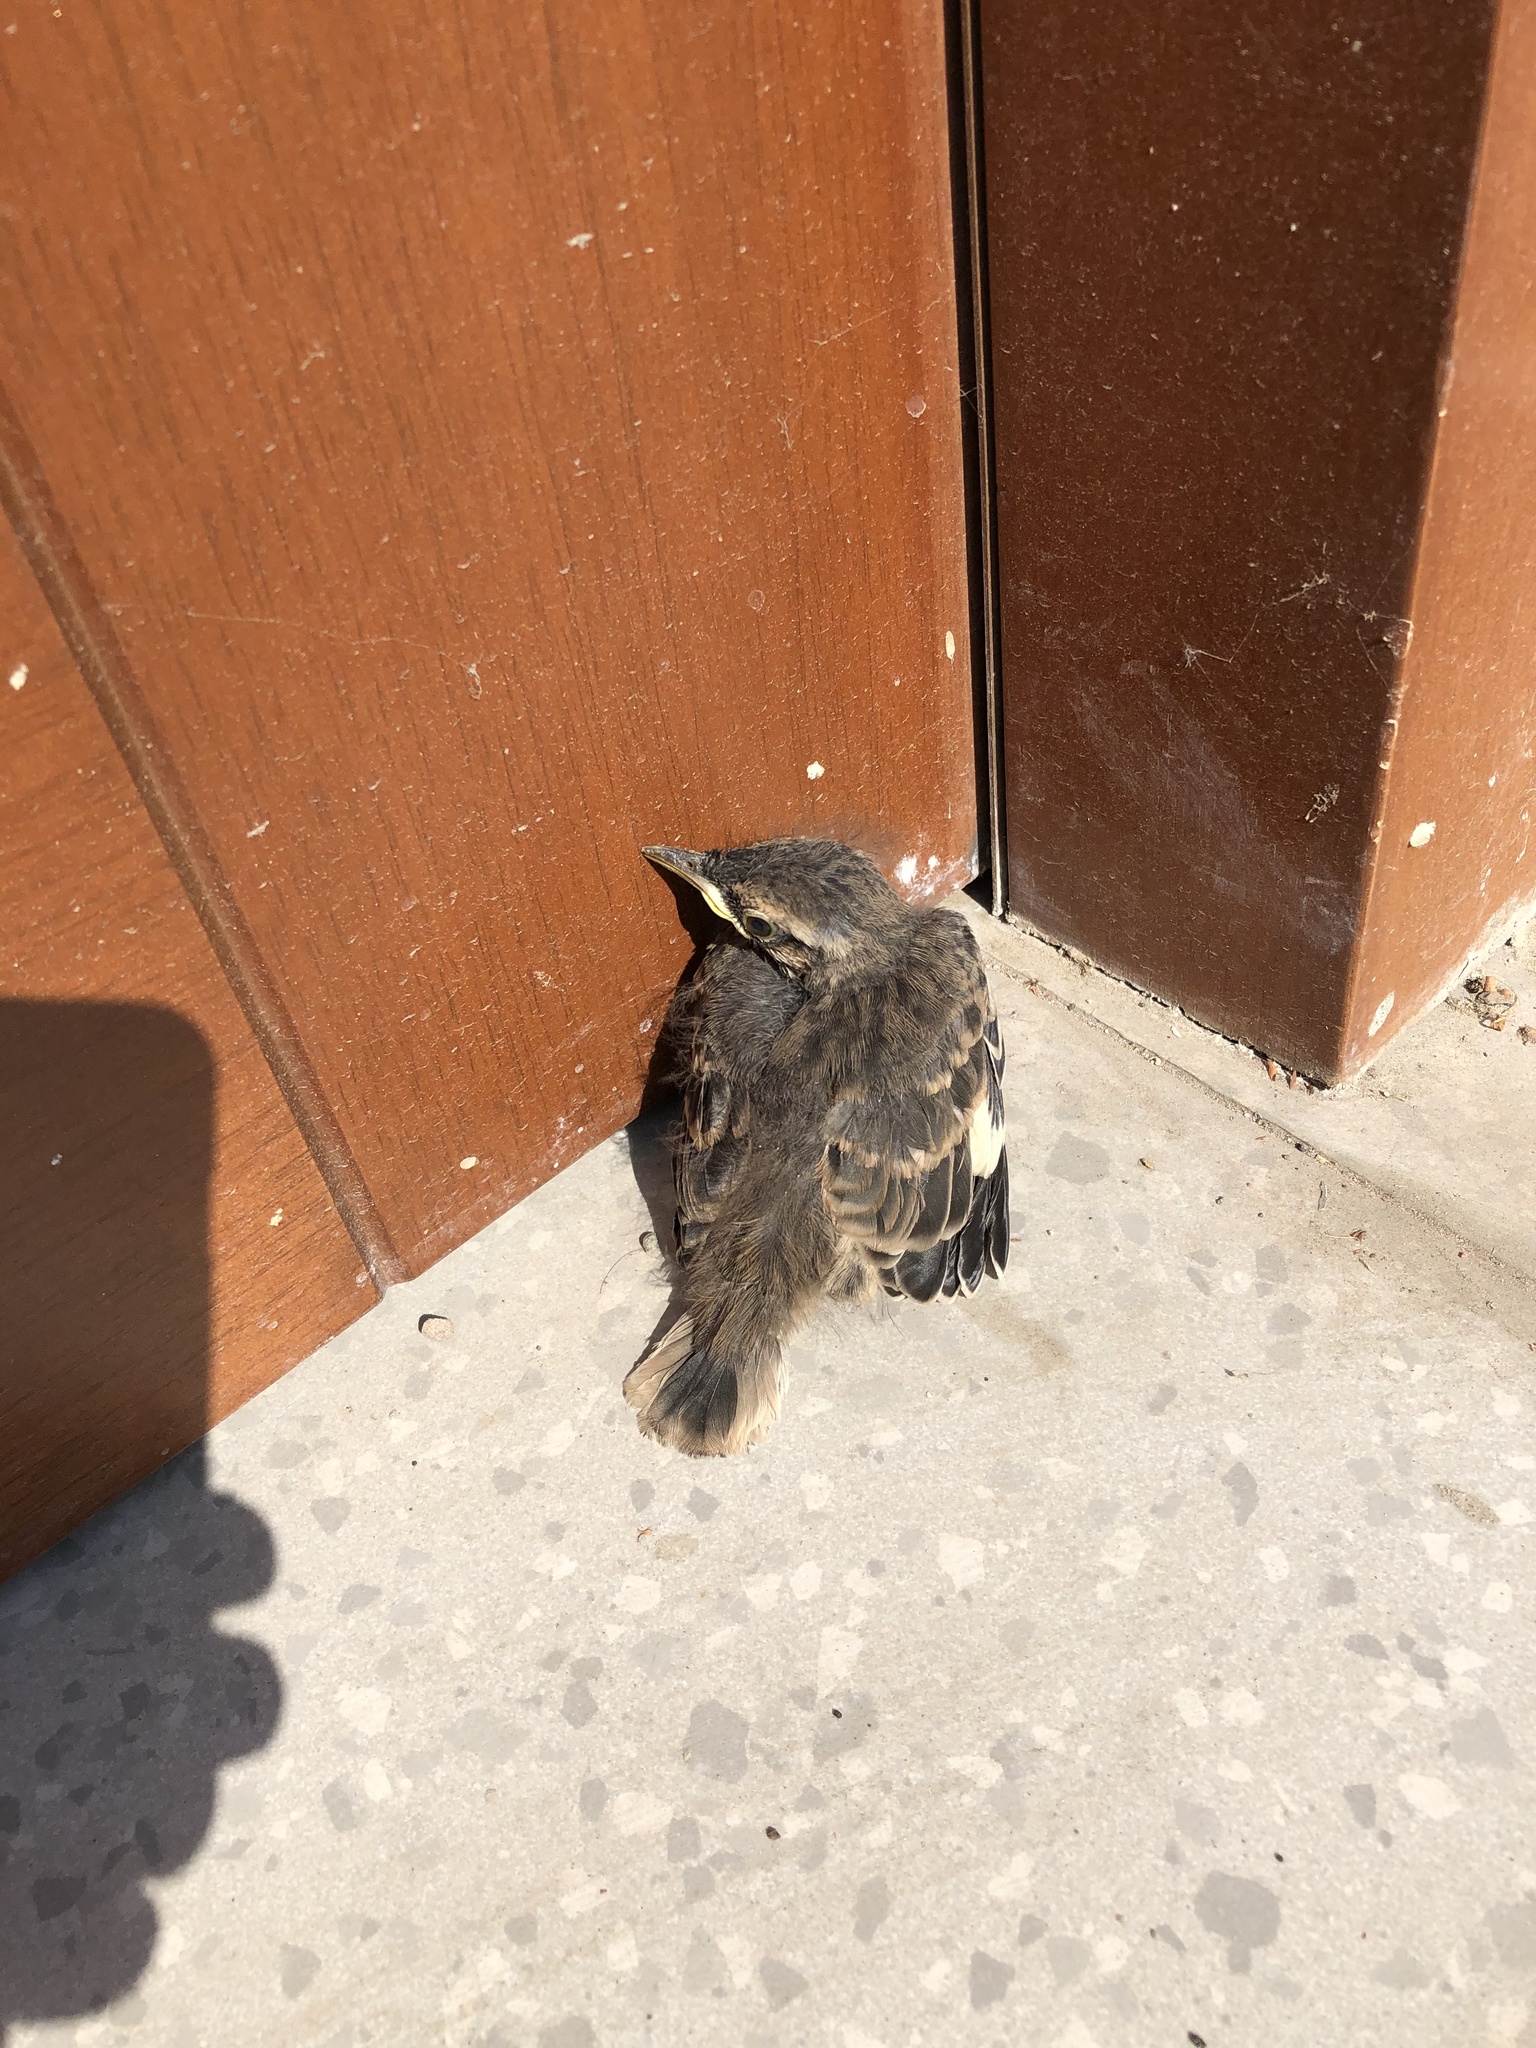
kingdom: Animalia
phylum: Chordata
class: Aves
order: Passeriformes
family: Mimidae
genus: Mimus
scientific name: Mimus longicaudatus
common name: Long-tailed mockingbird
